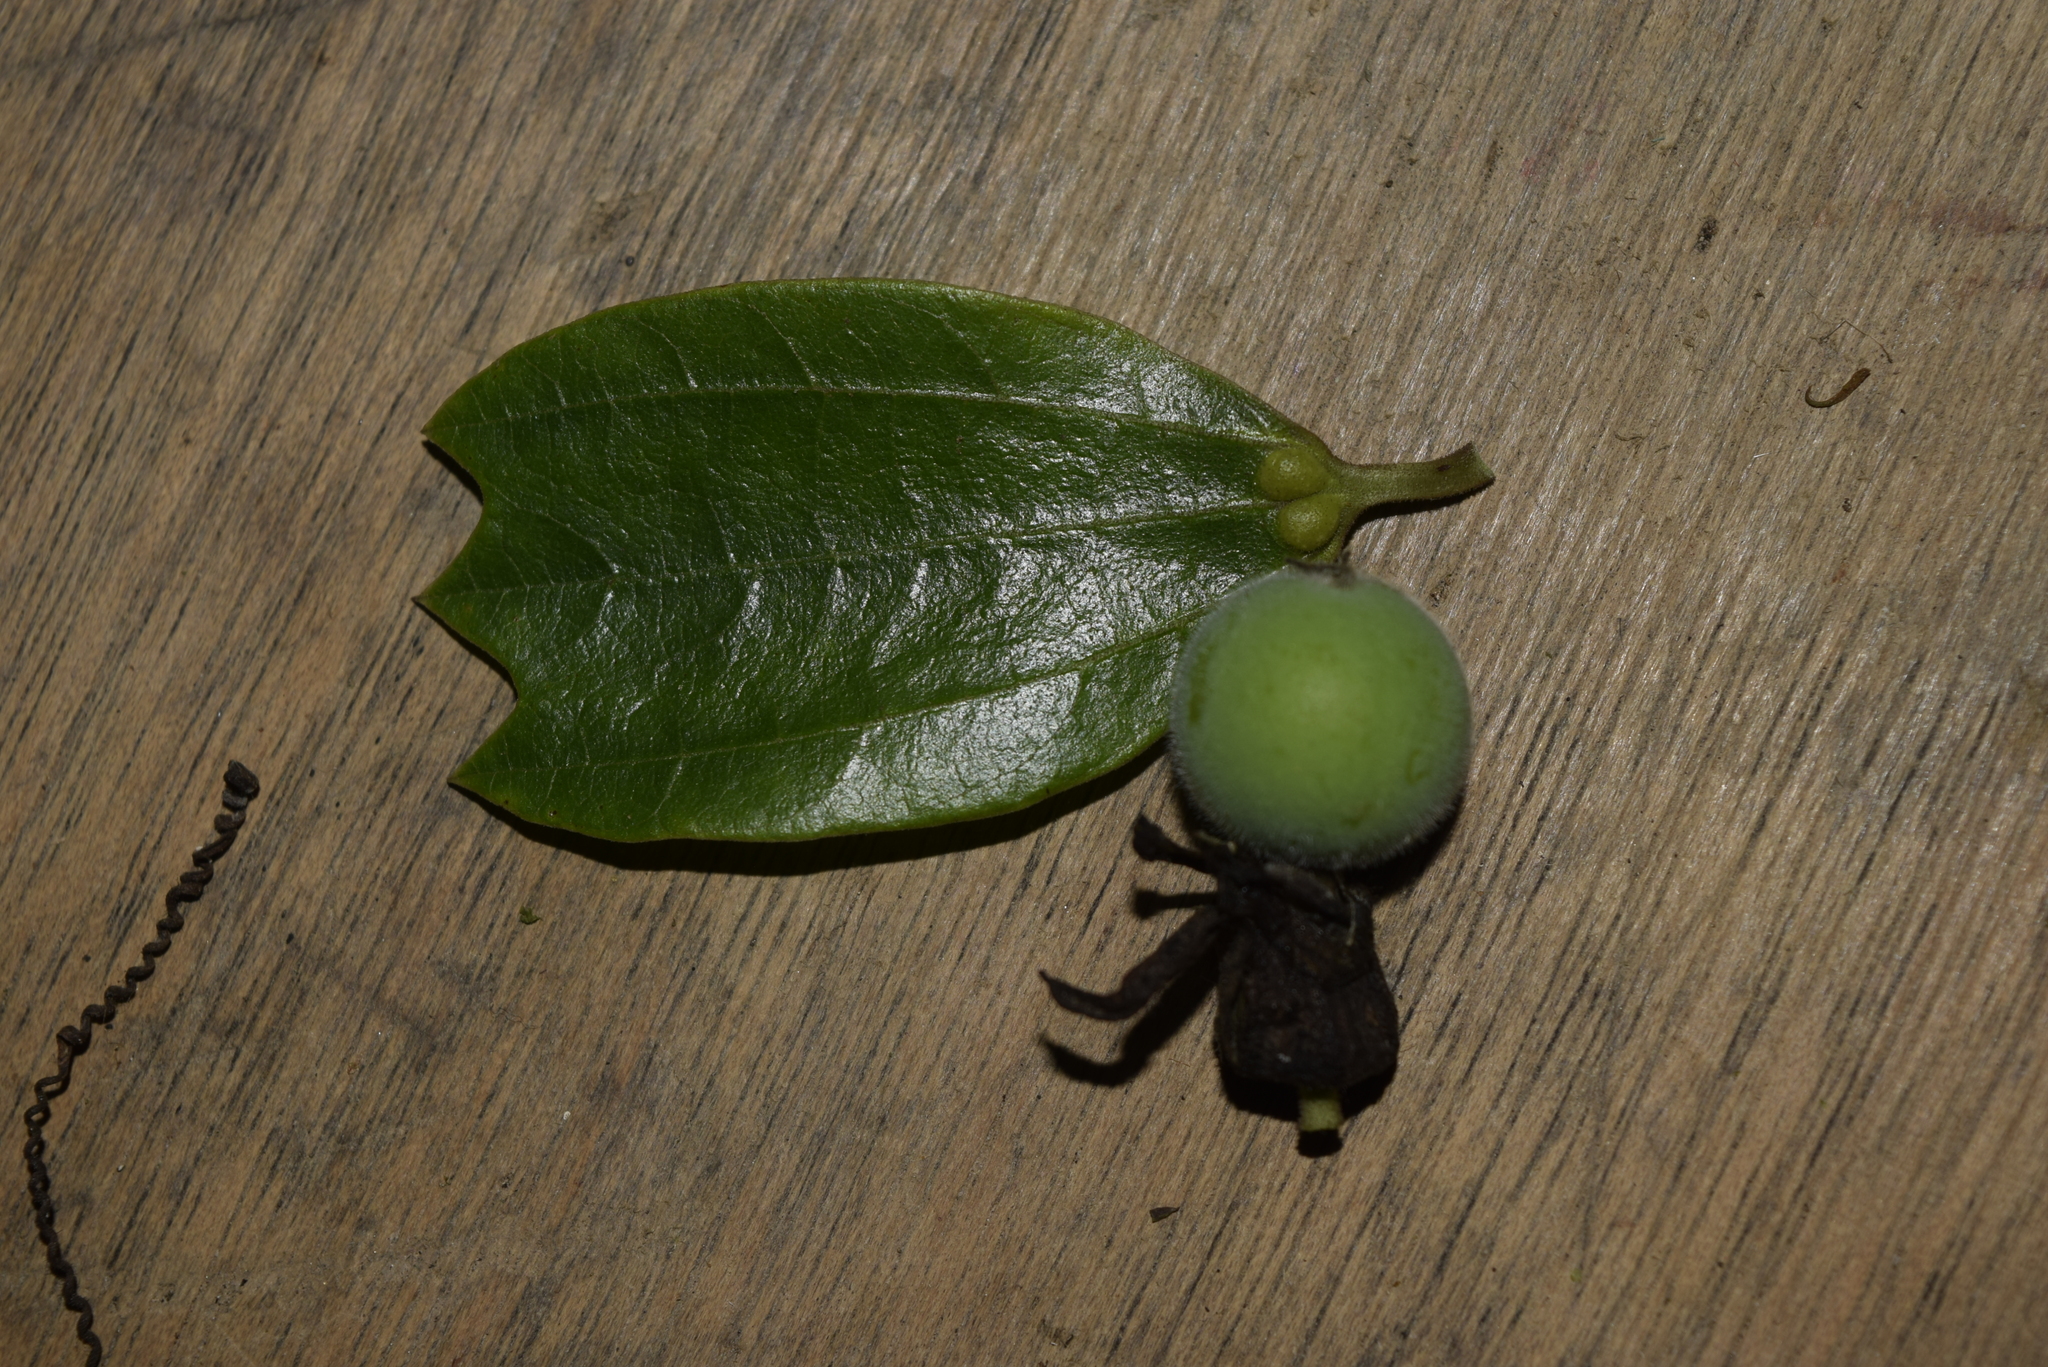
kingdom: Plantae
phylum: Tracheophyta
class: Magnoliopsida
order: Malpighiales
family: Passifloraceae
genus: Passiflora
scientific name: Passiflora lyra
